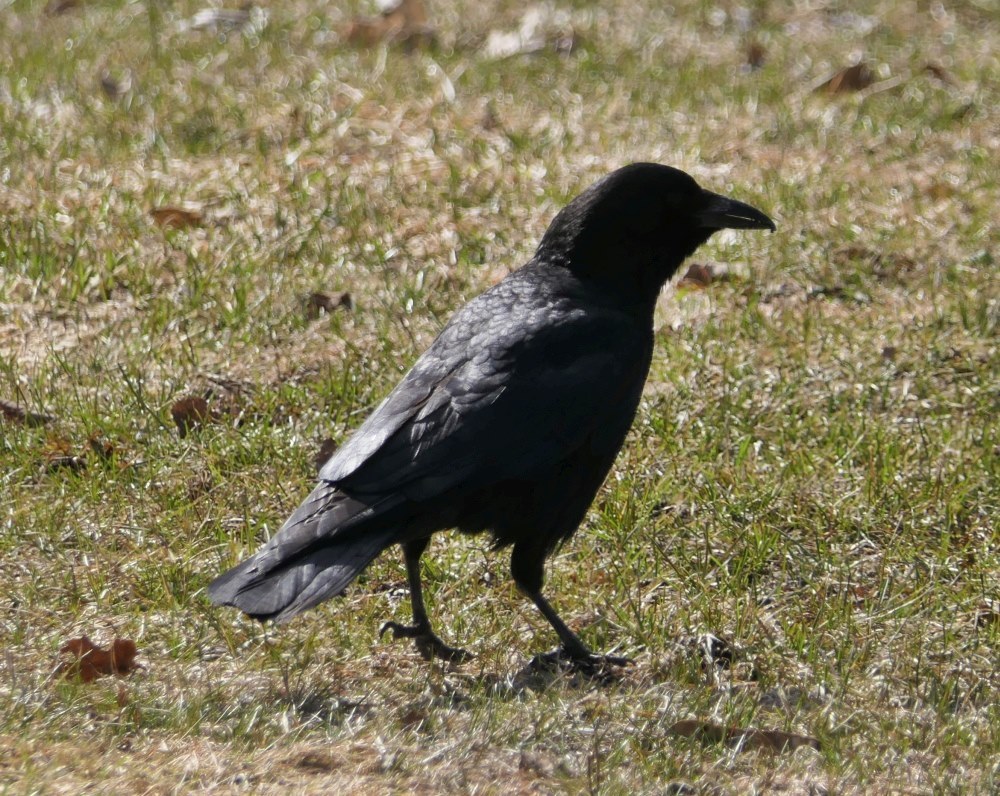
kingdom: Animalia
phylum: Chordata
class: Aves
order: Passeriformes
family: Corvidae
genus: Corvus
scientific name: Corvus brachyrhynchos
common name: American crow
